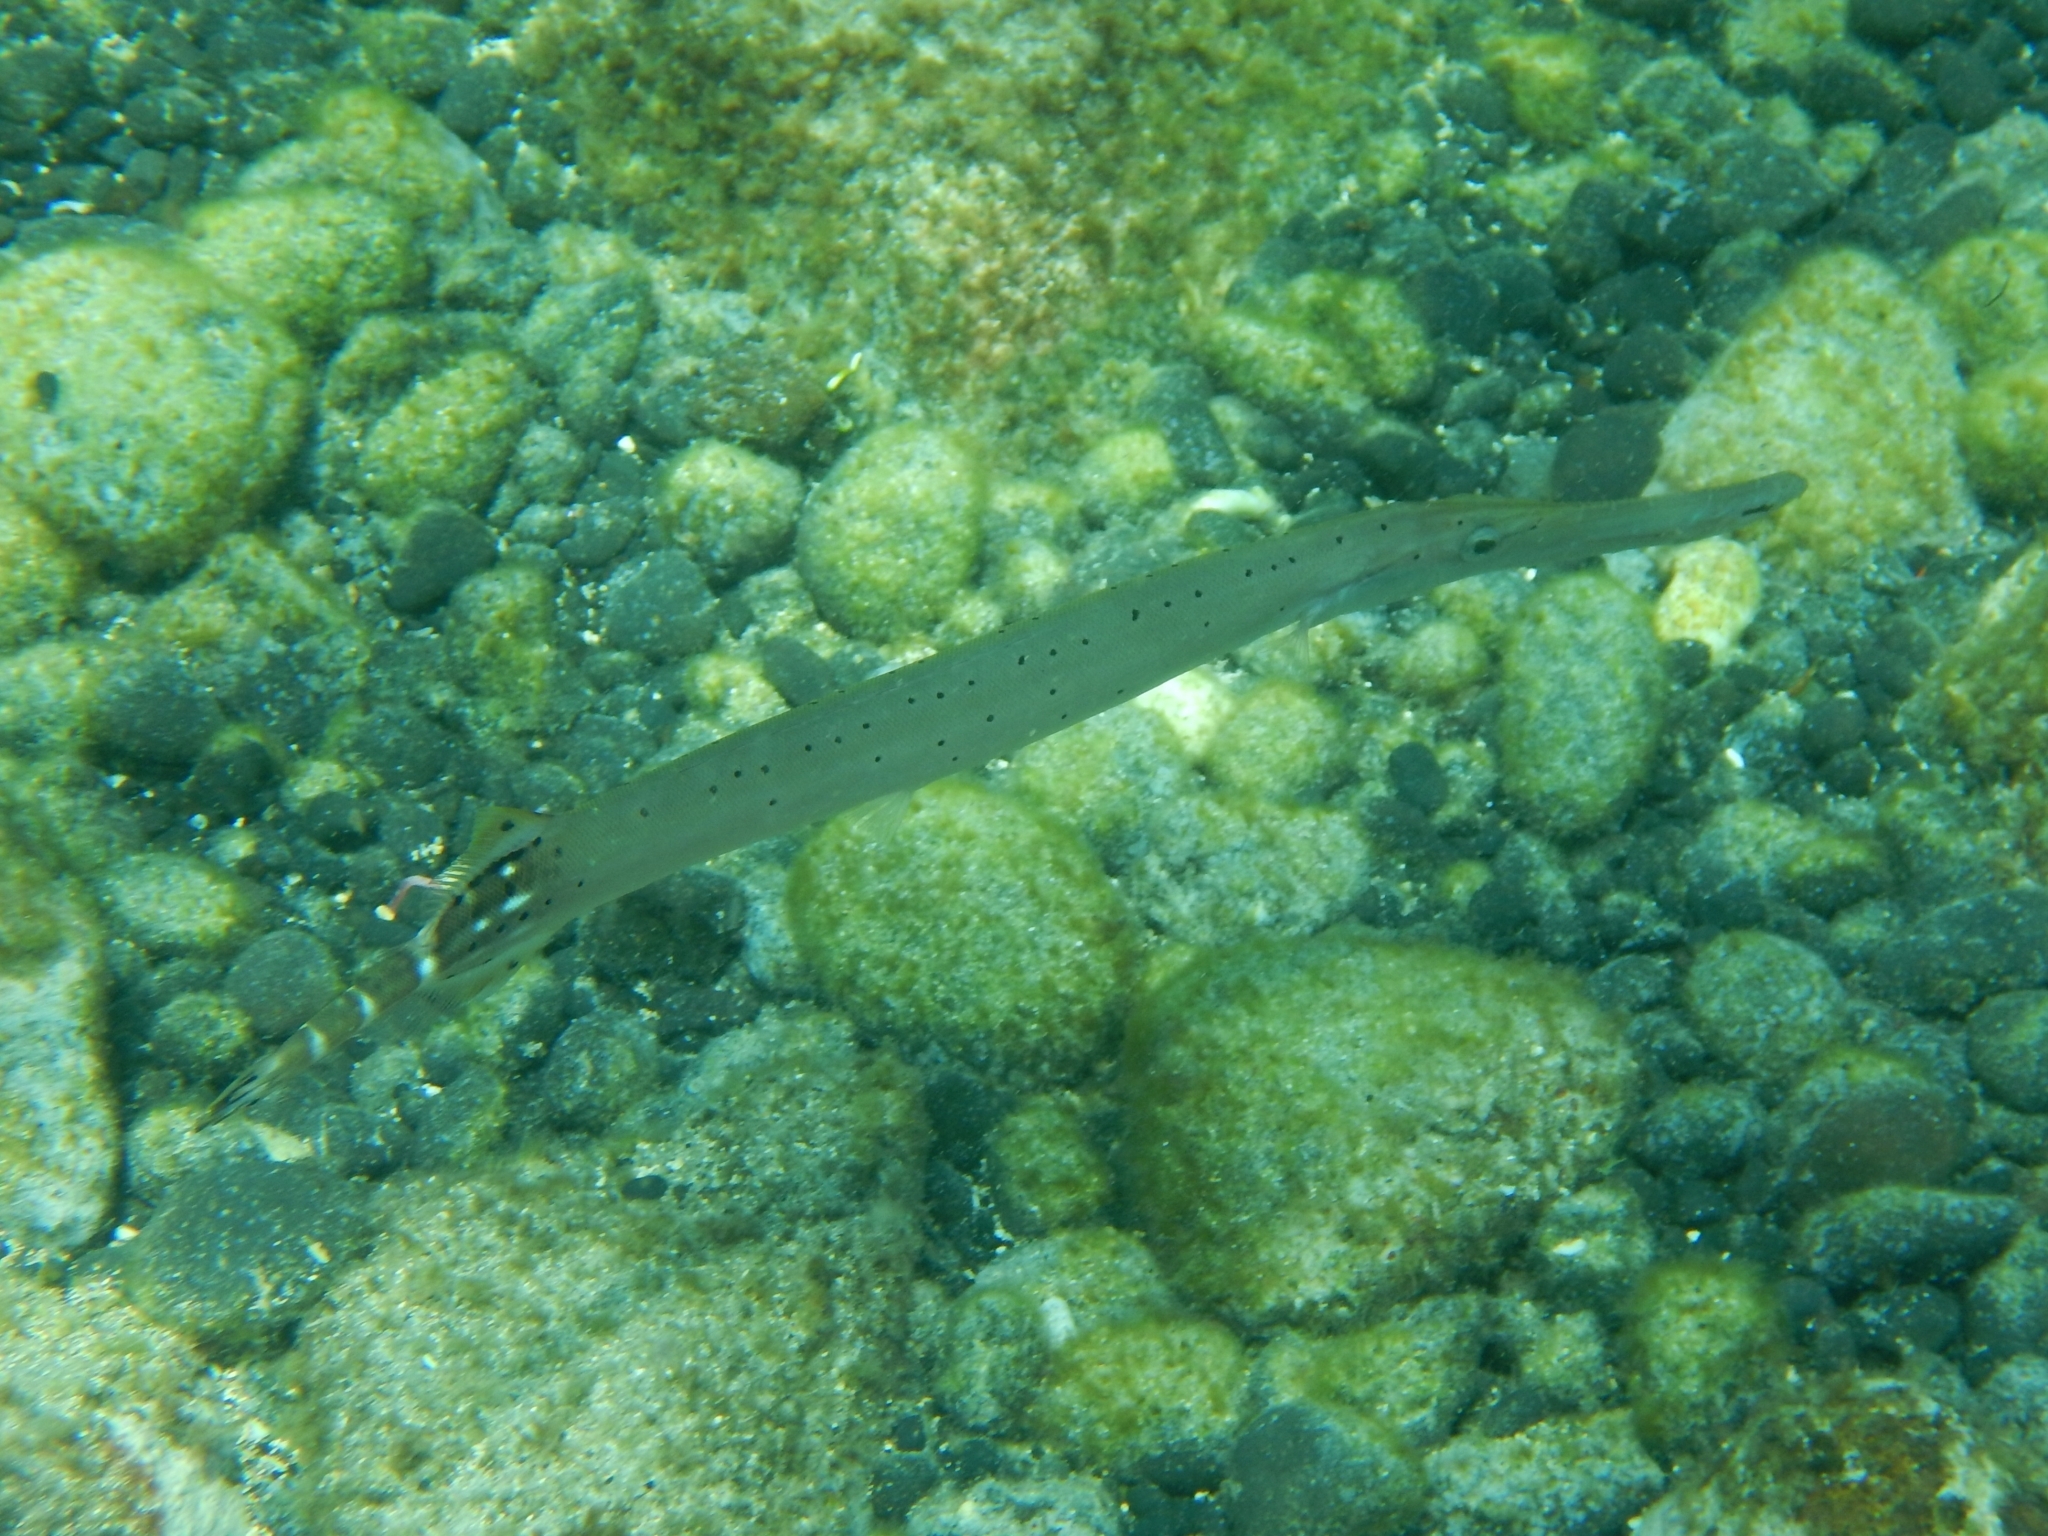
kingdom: Animalia
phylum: Chordata
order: Syngnathiformes
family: Aulostomidae
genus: Aulostomus
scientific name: Aulostomus strigosus
